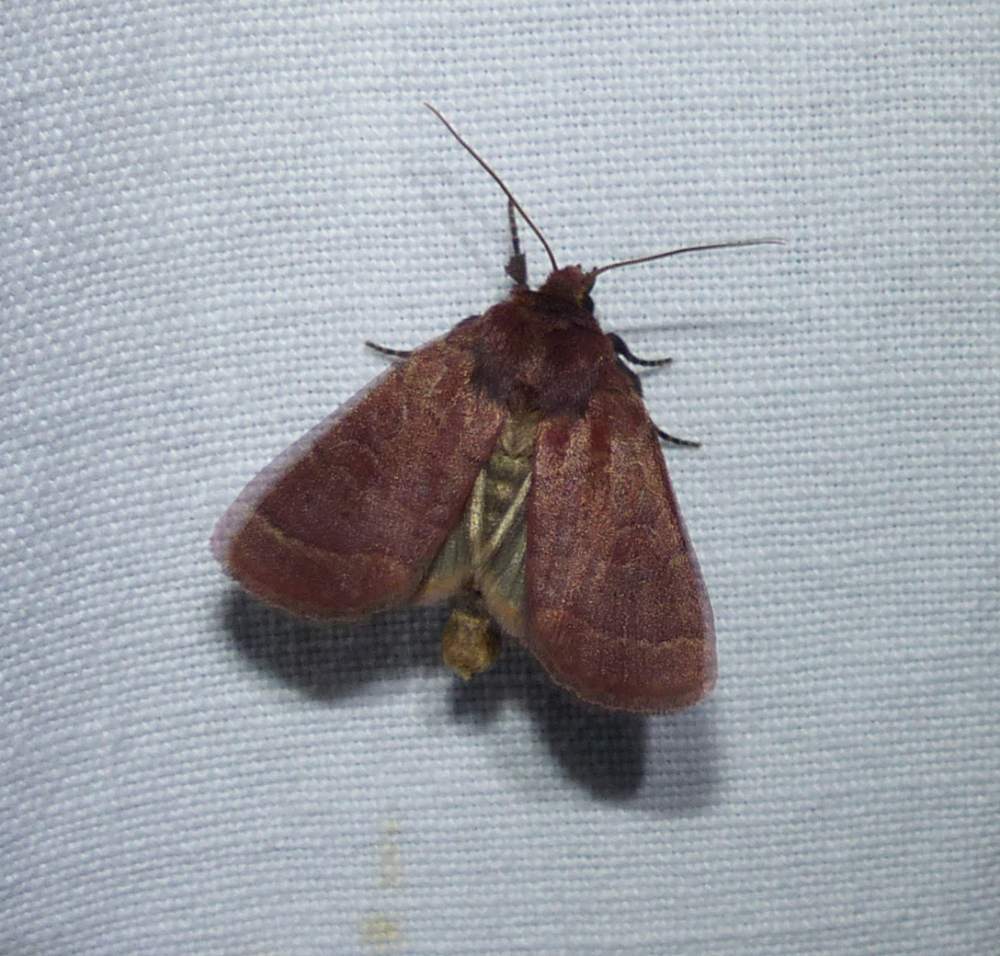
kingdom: Animalia
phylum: Arthropoda
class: Insecta
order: Lepidoptera
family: Noctuidae
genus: Orthodes
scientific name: Orthodes cynica
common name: Cynical quaker
